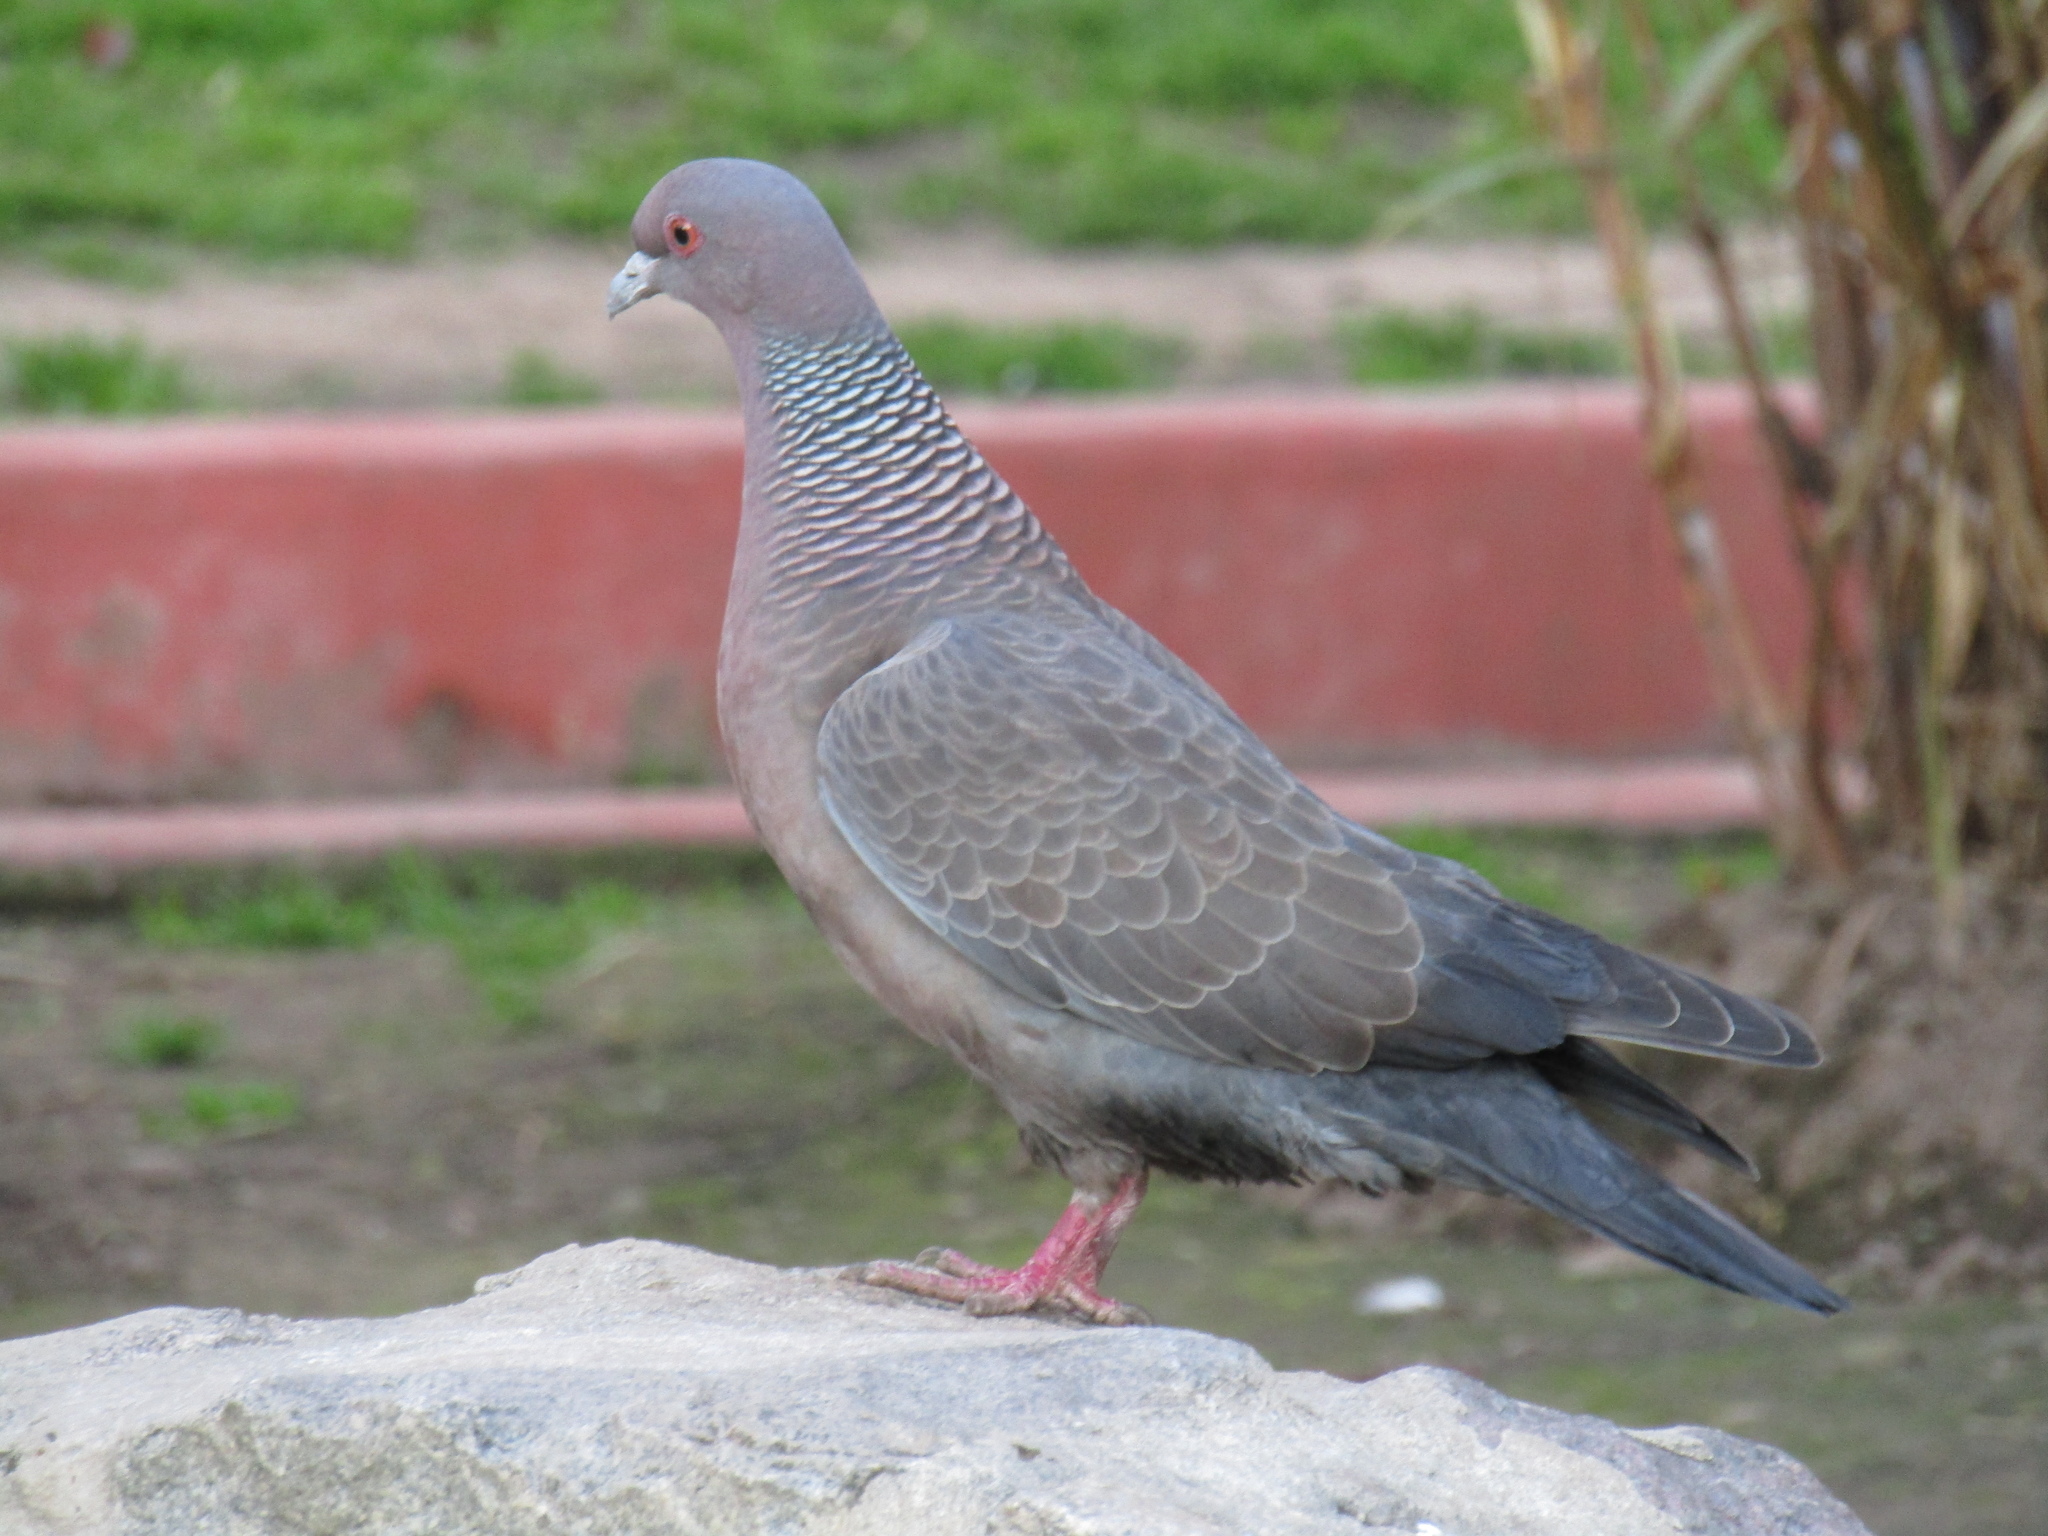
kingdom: Animalia
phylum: Chordata
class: Aves
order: Columbiformes
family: Columbidae
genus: Patagioenas
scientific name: Patagioenas picazuro
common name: Picazuro pigeon
